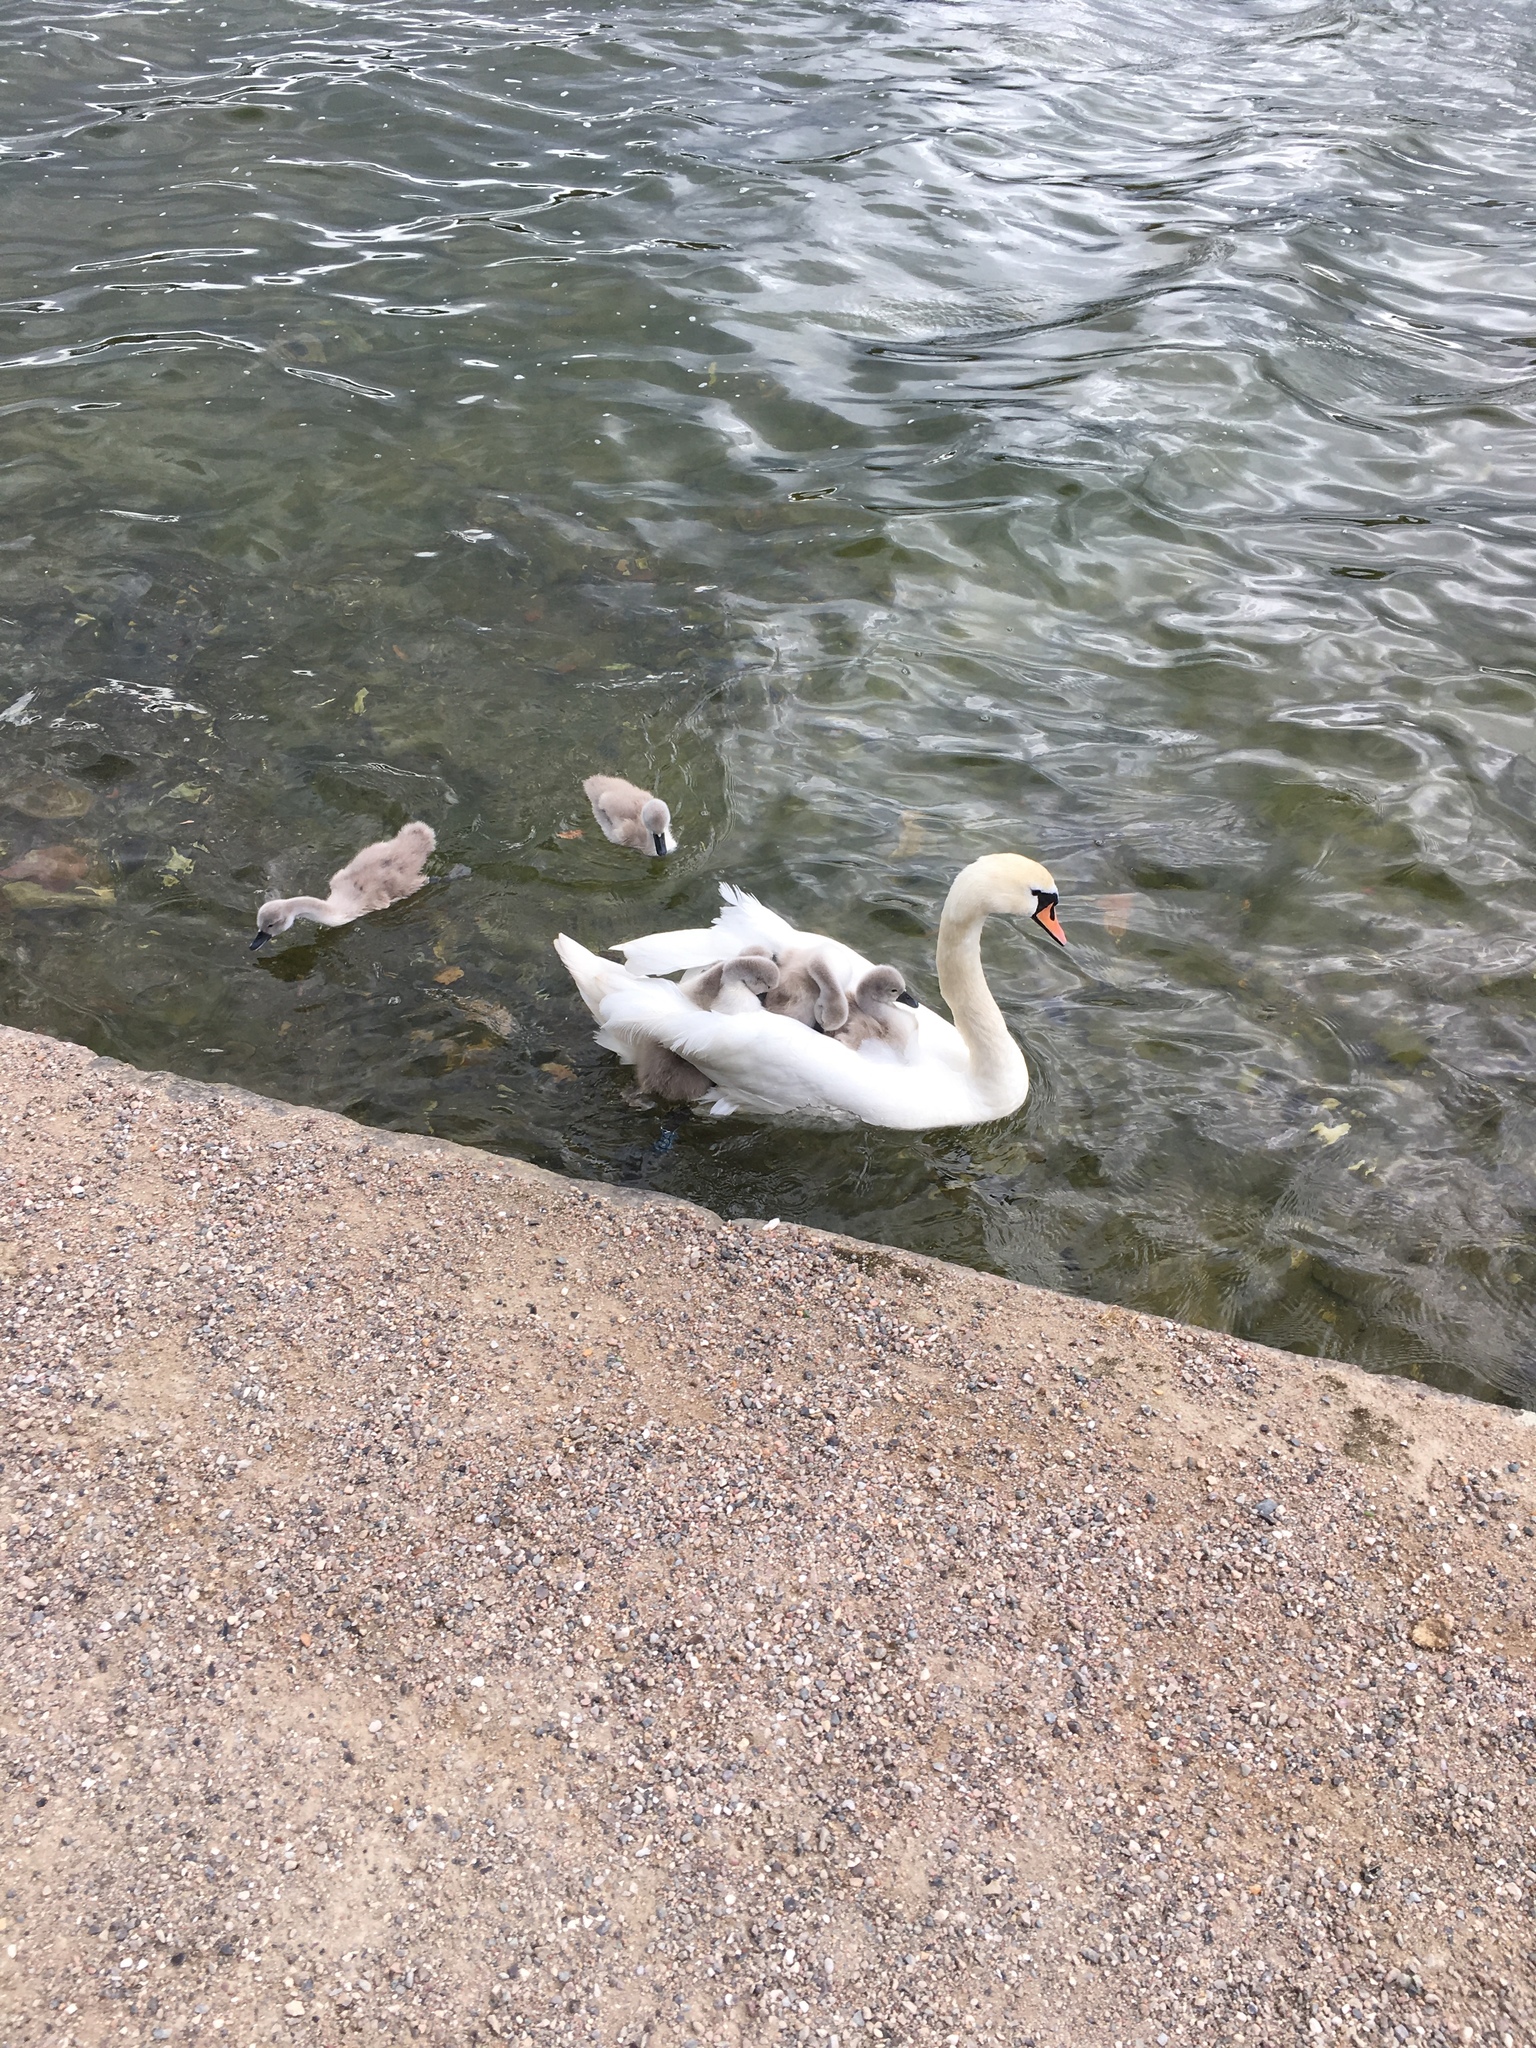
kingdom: Animalia
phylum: Chordata
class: Aves
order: Anseriformes
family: Anatidae
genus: Cygnus
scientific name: Cygnus olor
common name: Mute swan
